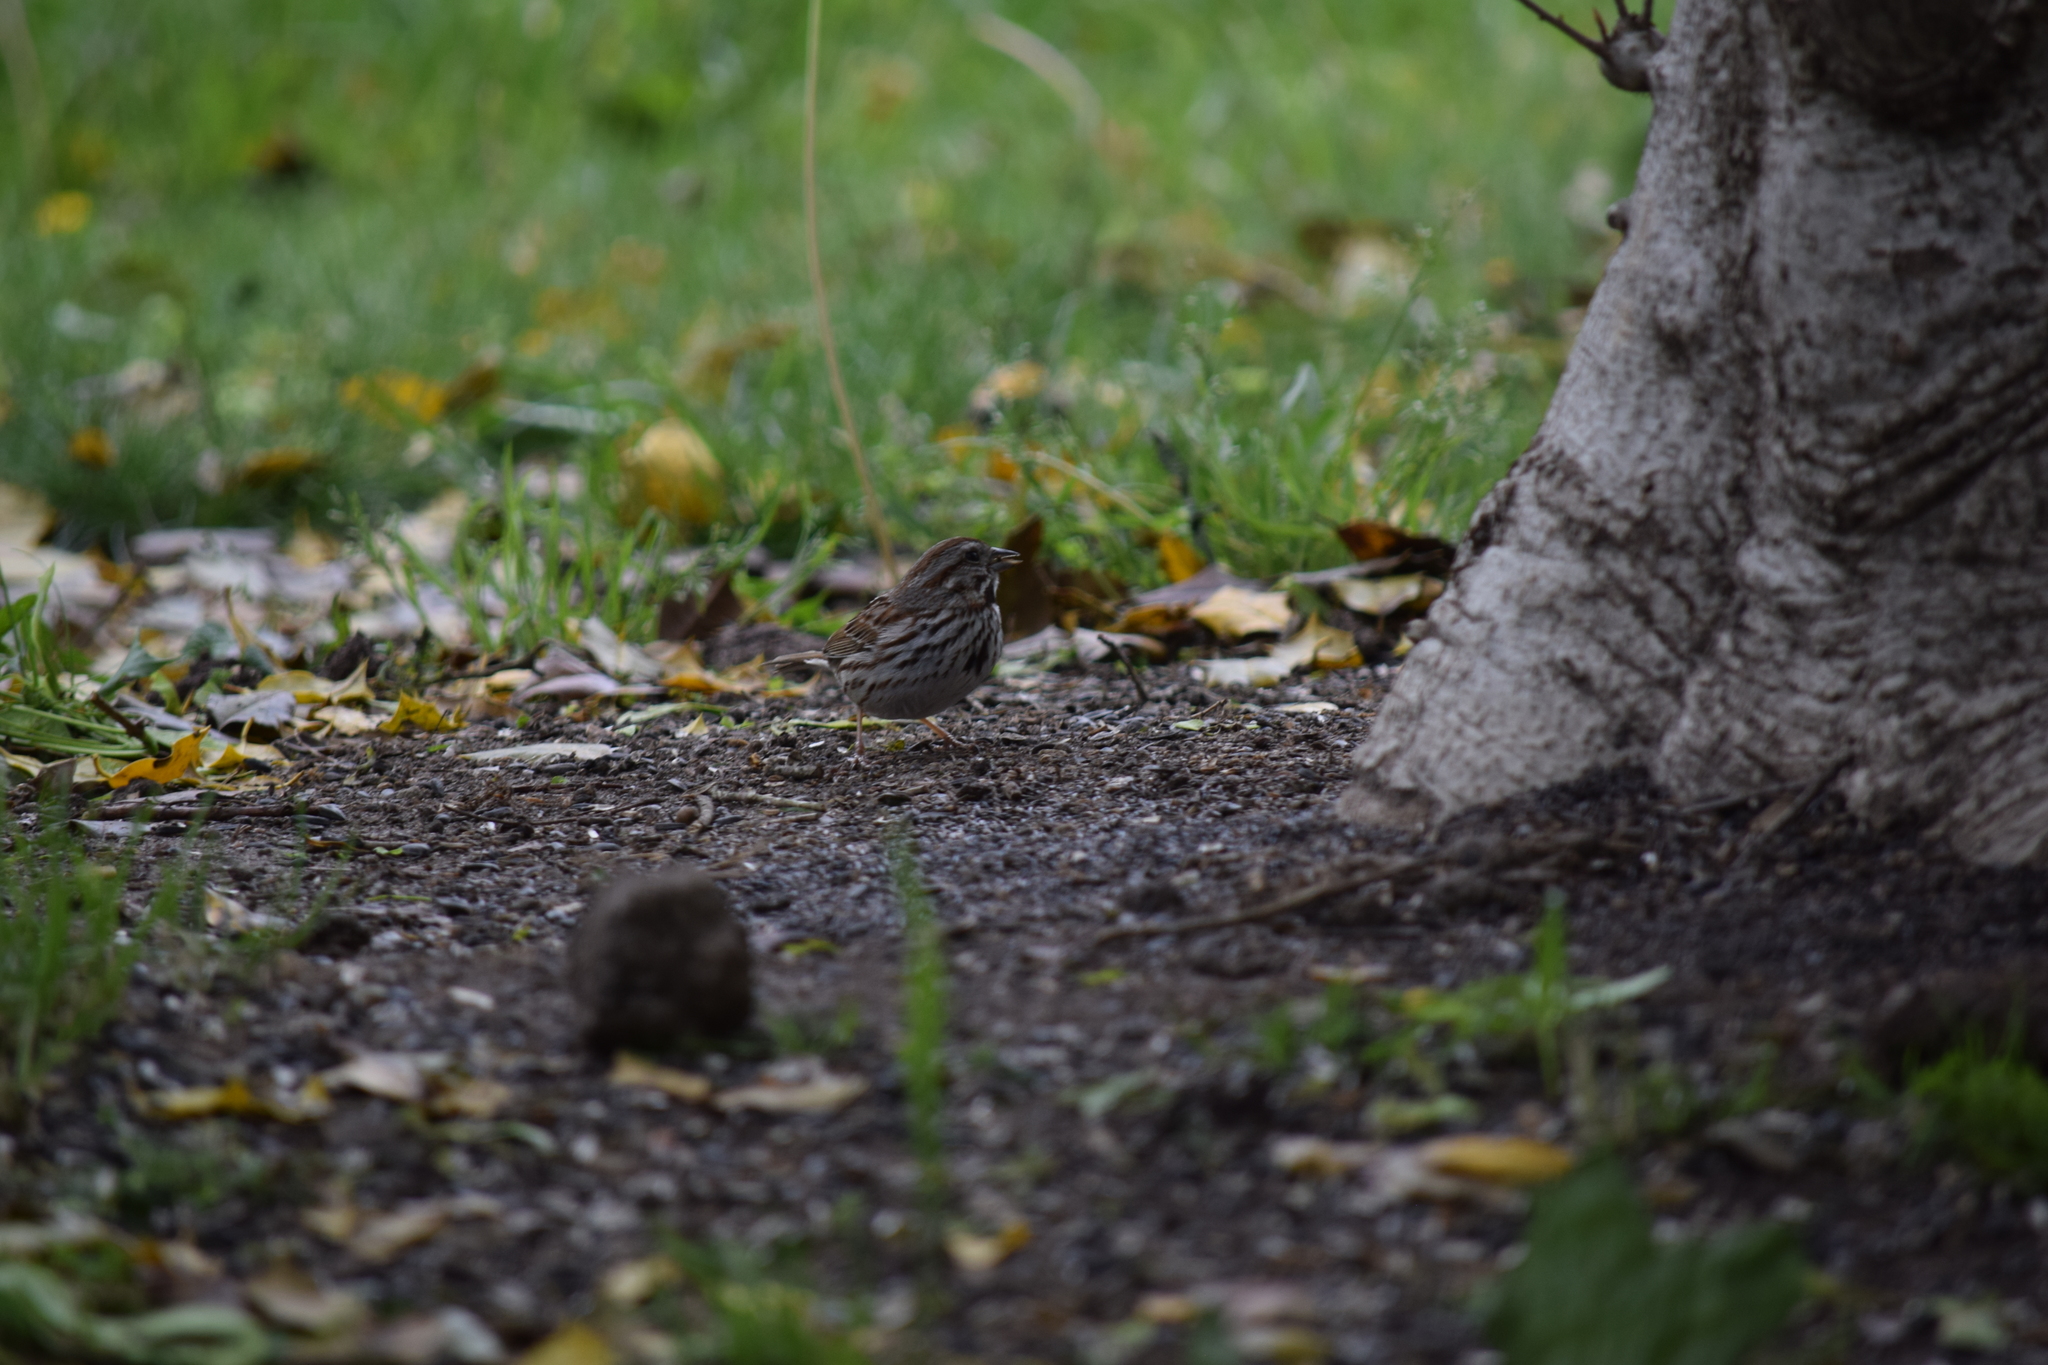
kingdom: Animalia
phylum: Chordata
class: Aves
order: Passeriformes
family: Passerellidae
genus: Melospiza
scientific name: Melospiza melodia
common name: Song sparrow
